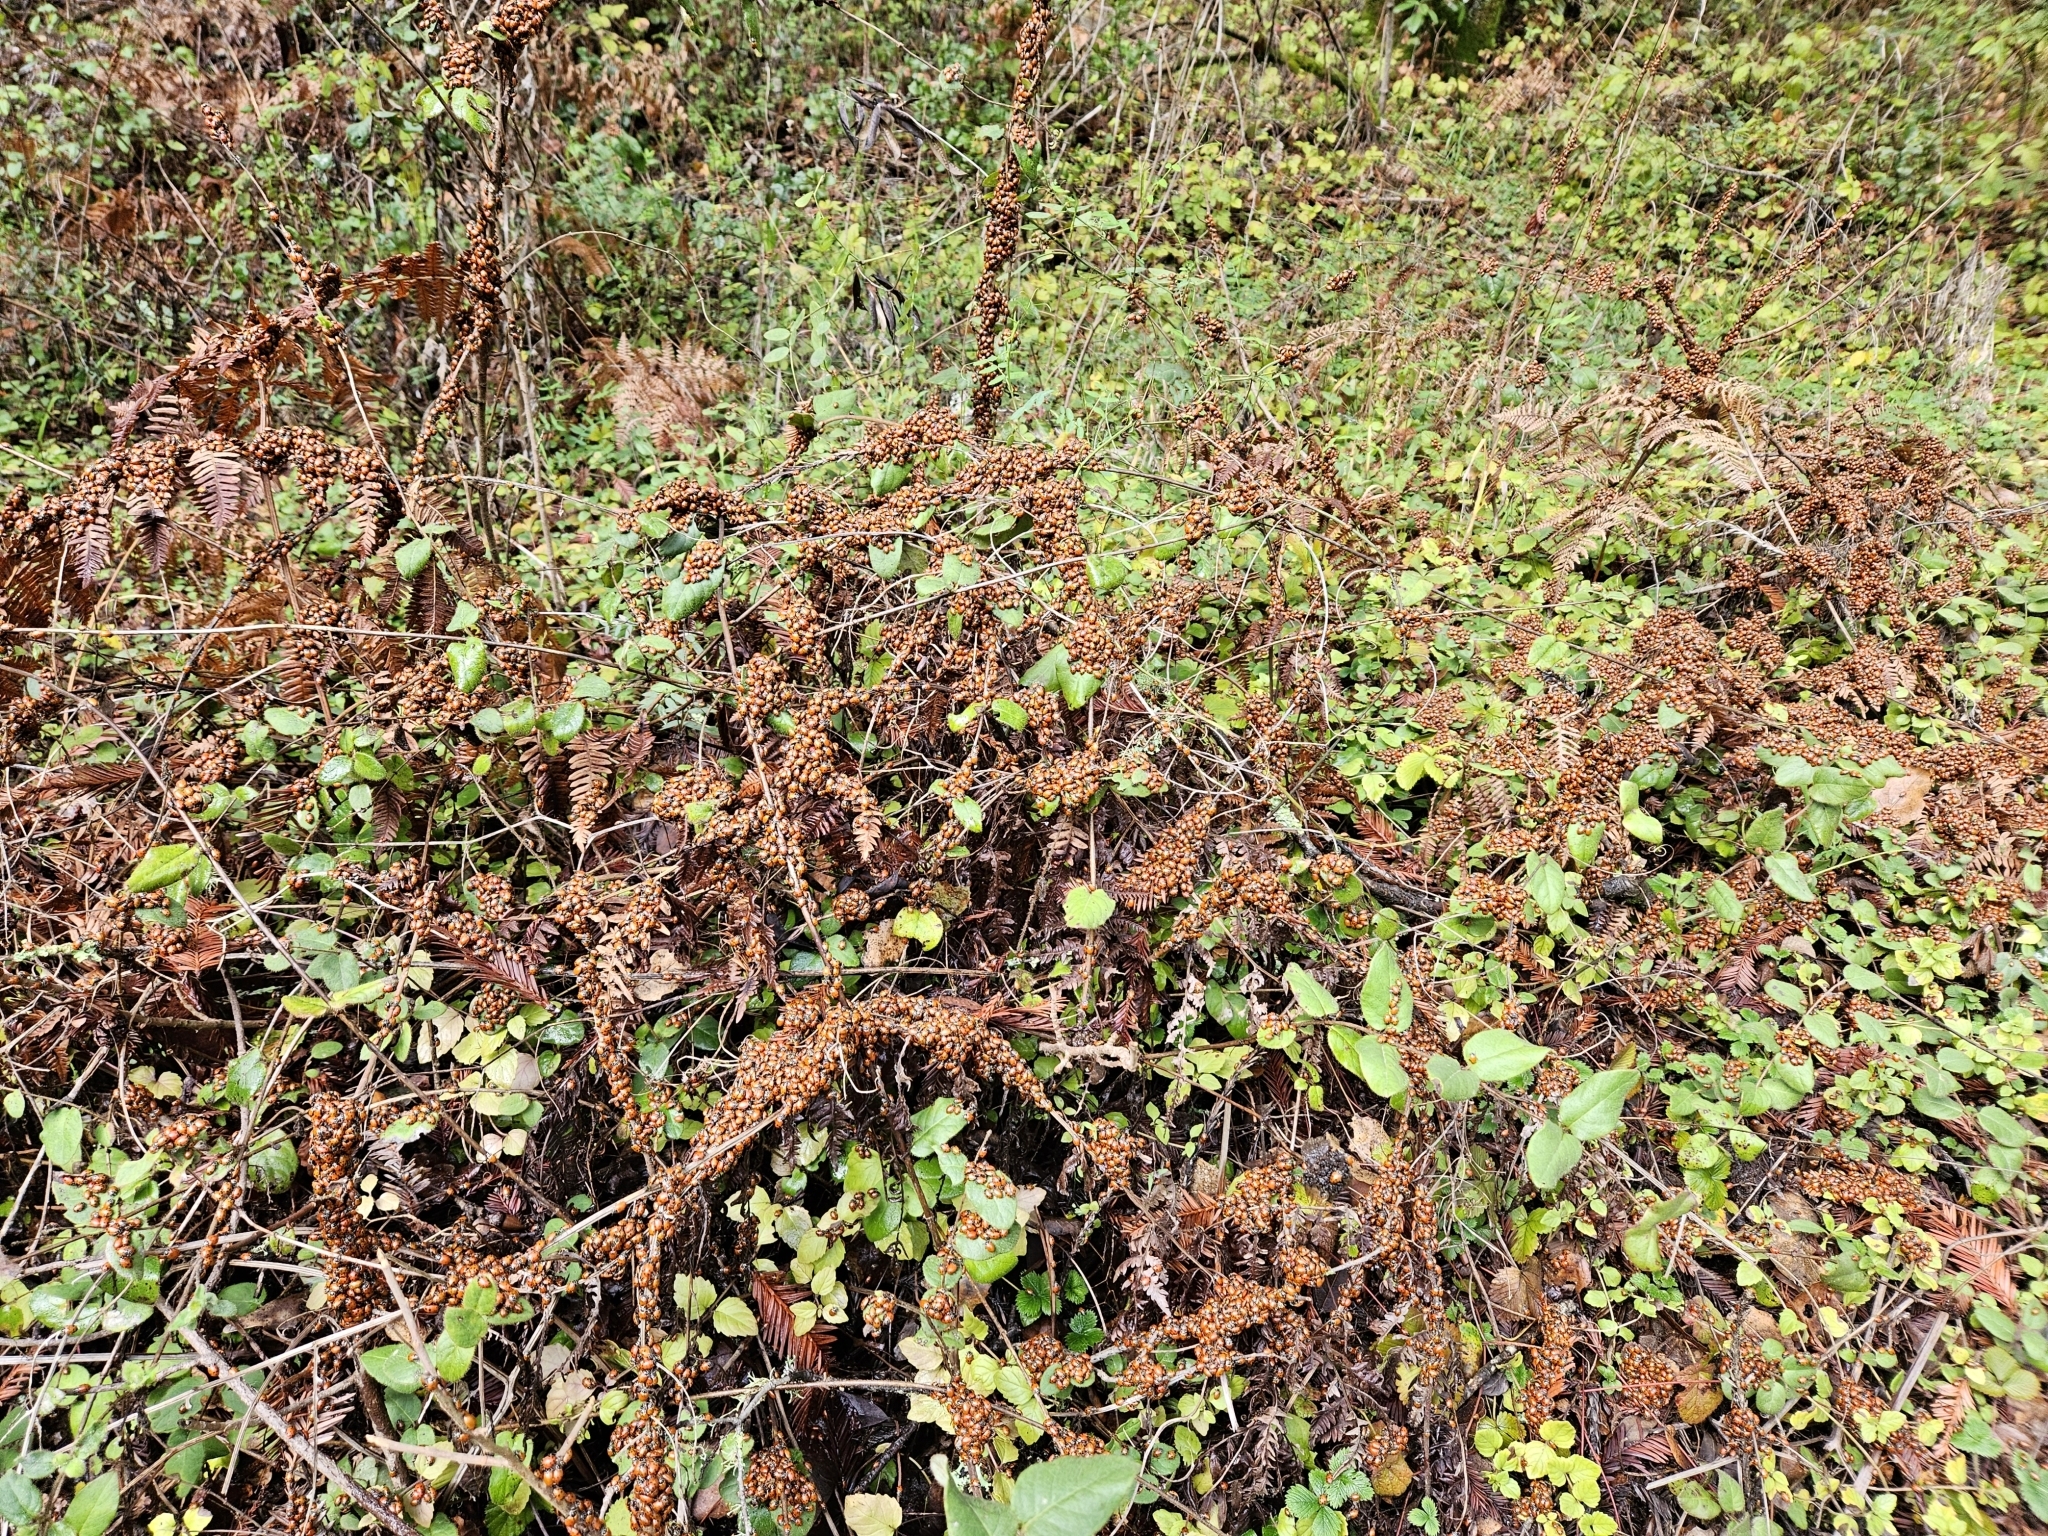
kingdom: Animalia
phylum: Arthropoda
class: Insecta
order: Coleoptera
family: Coccinellidae
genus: Hippodamia
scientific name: Hippodamia convergens
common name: Convergent lady beetle
